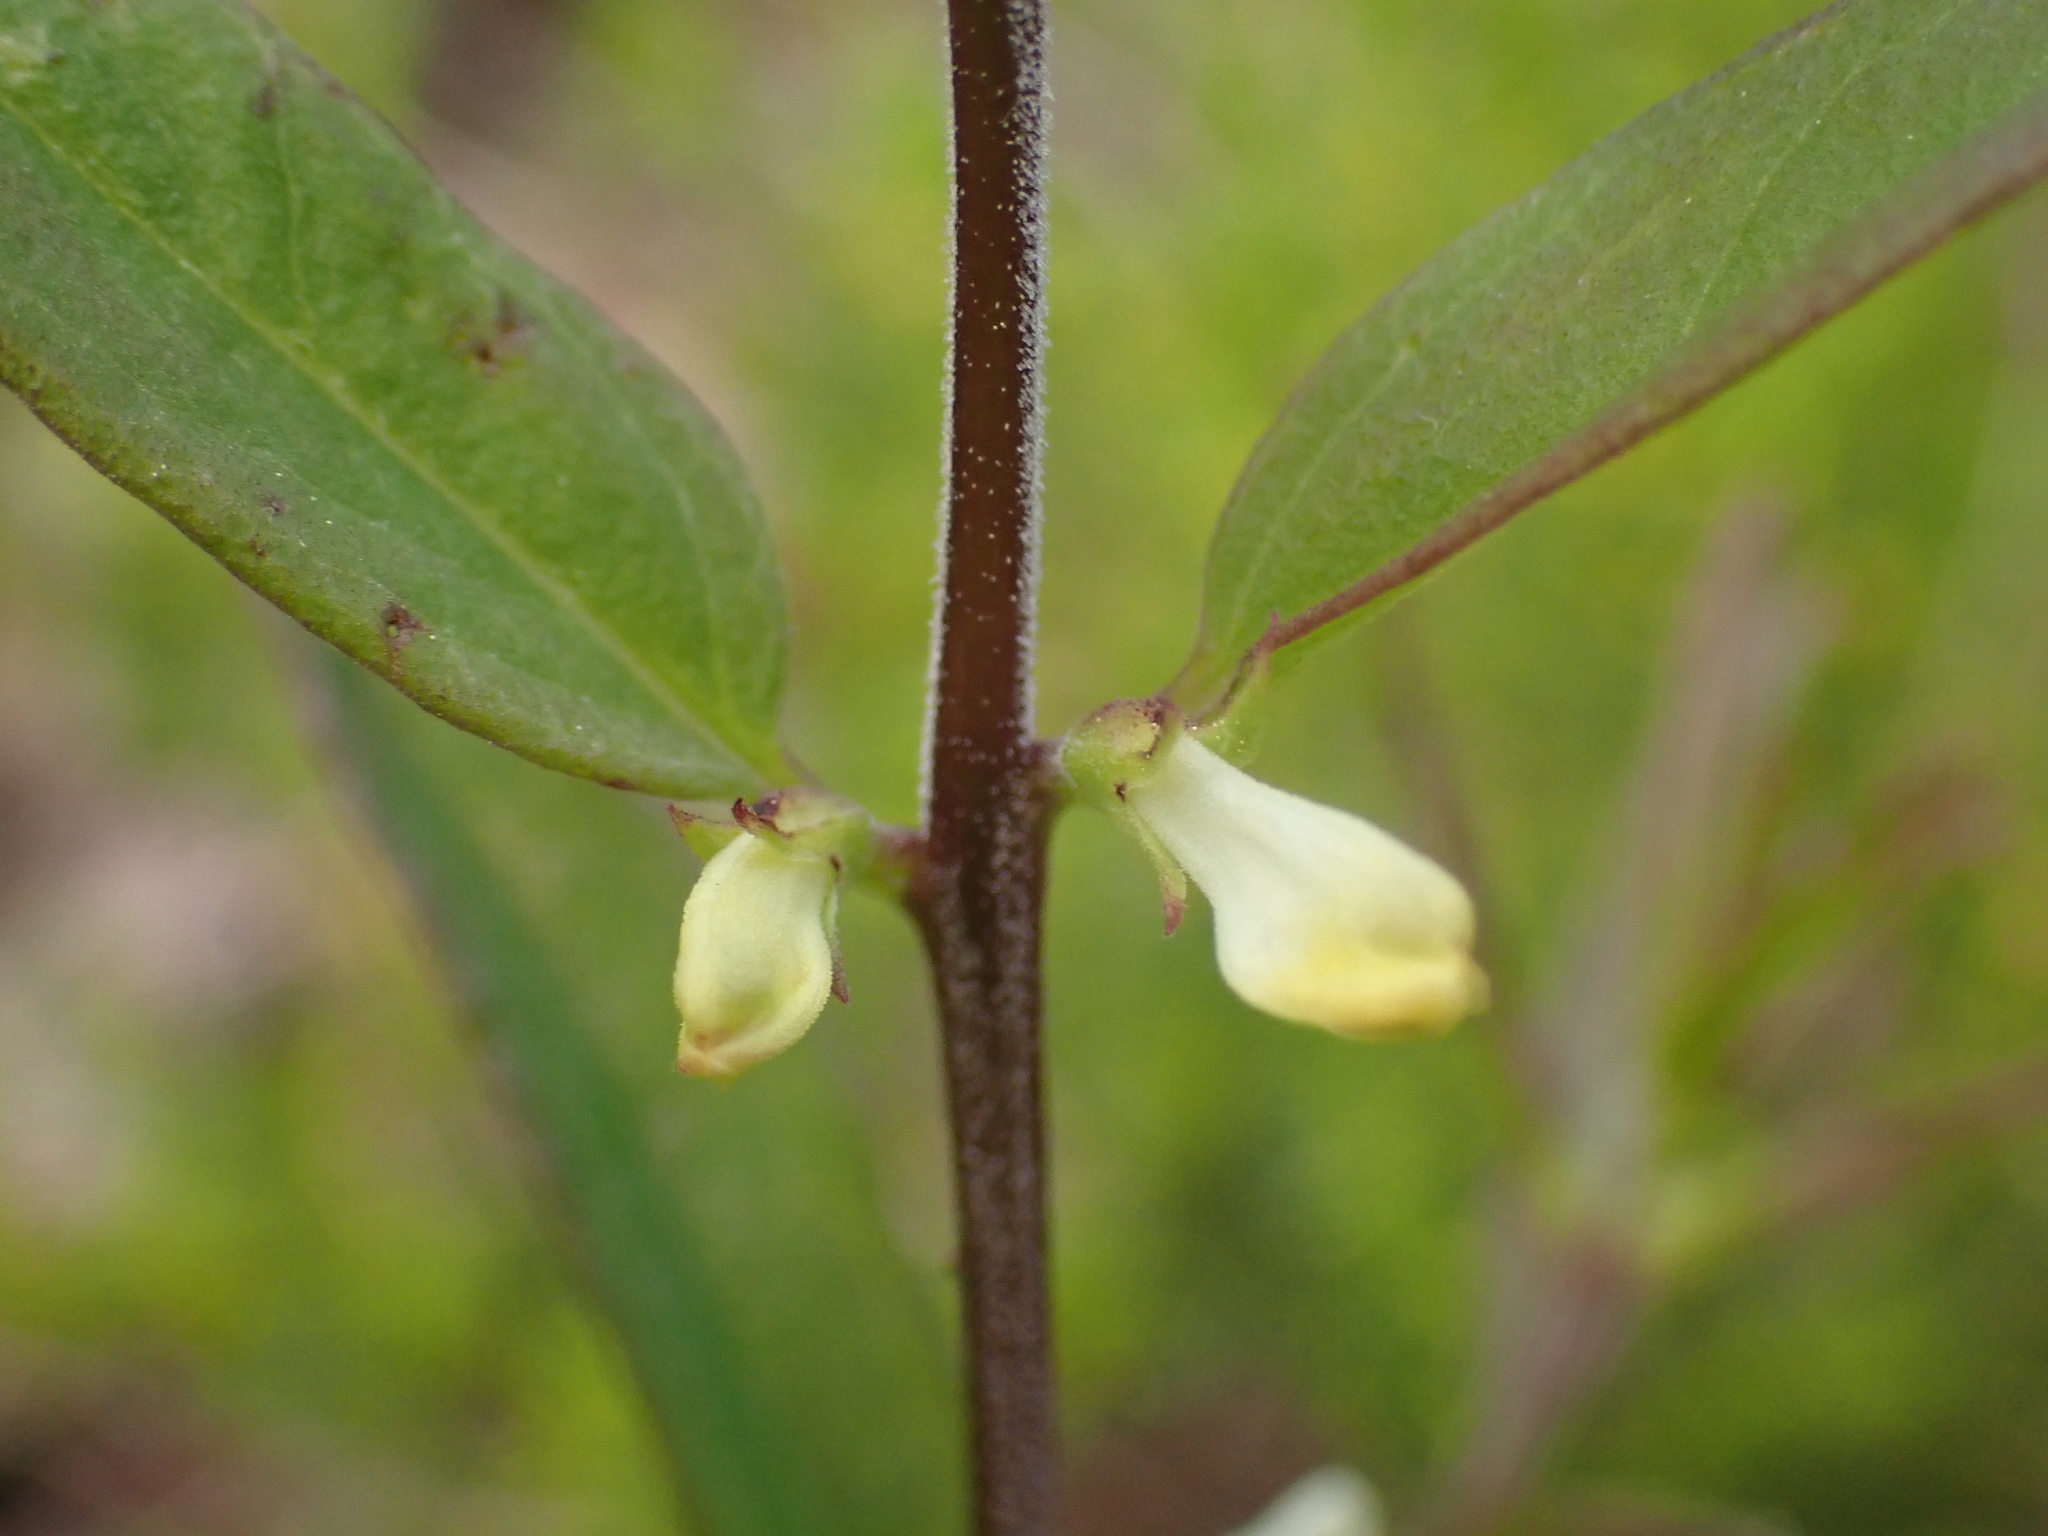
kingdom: Plantae
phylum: Tracheophyta
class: Magnoliopsida
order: Lamiales
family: Orobanchaceae
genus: Melampyrum
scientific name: Melampyrum lineare
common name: American cow-wheat
